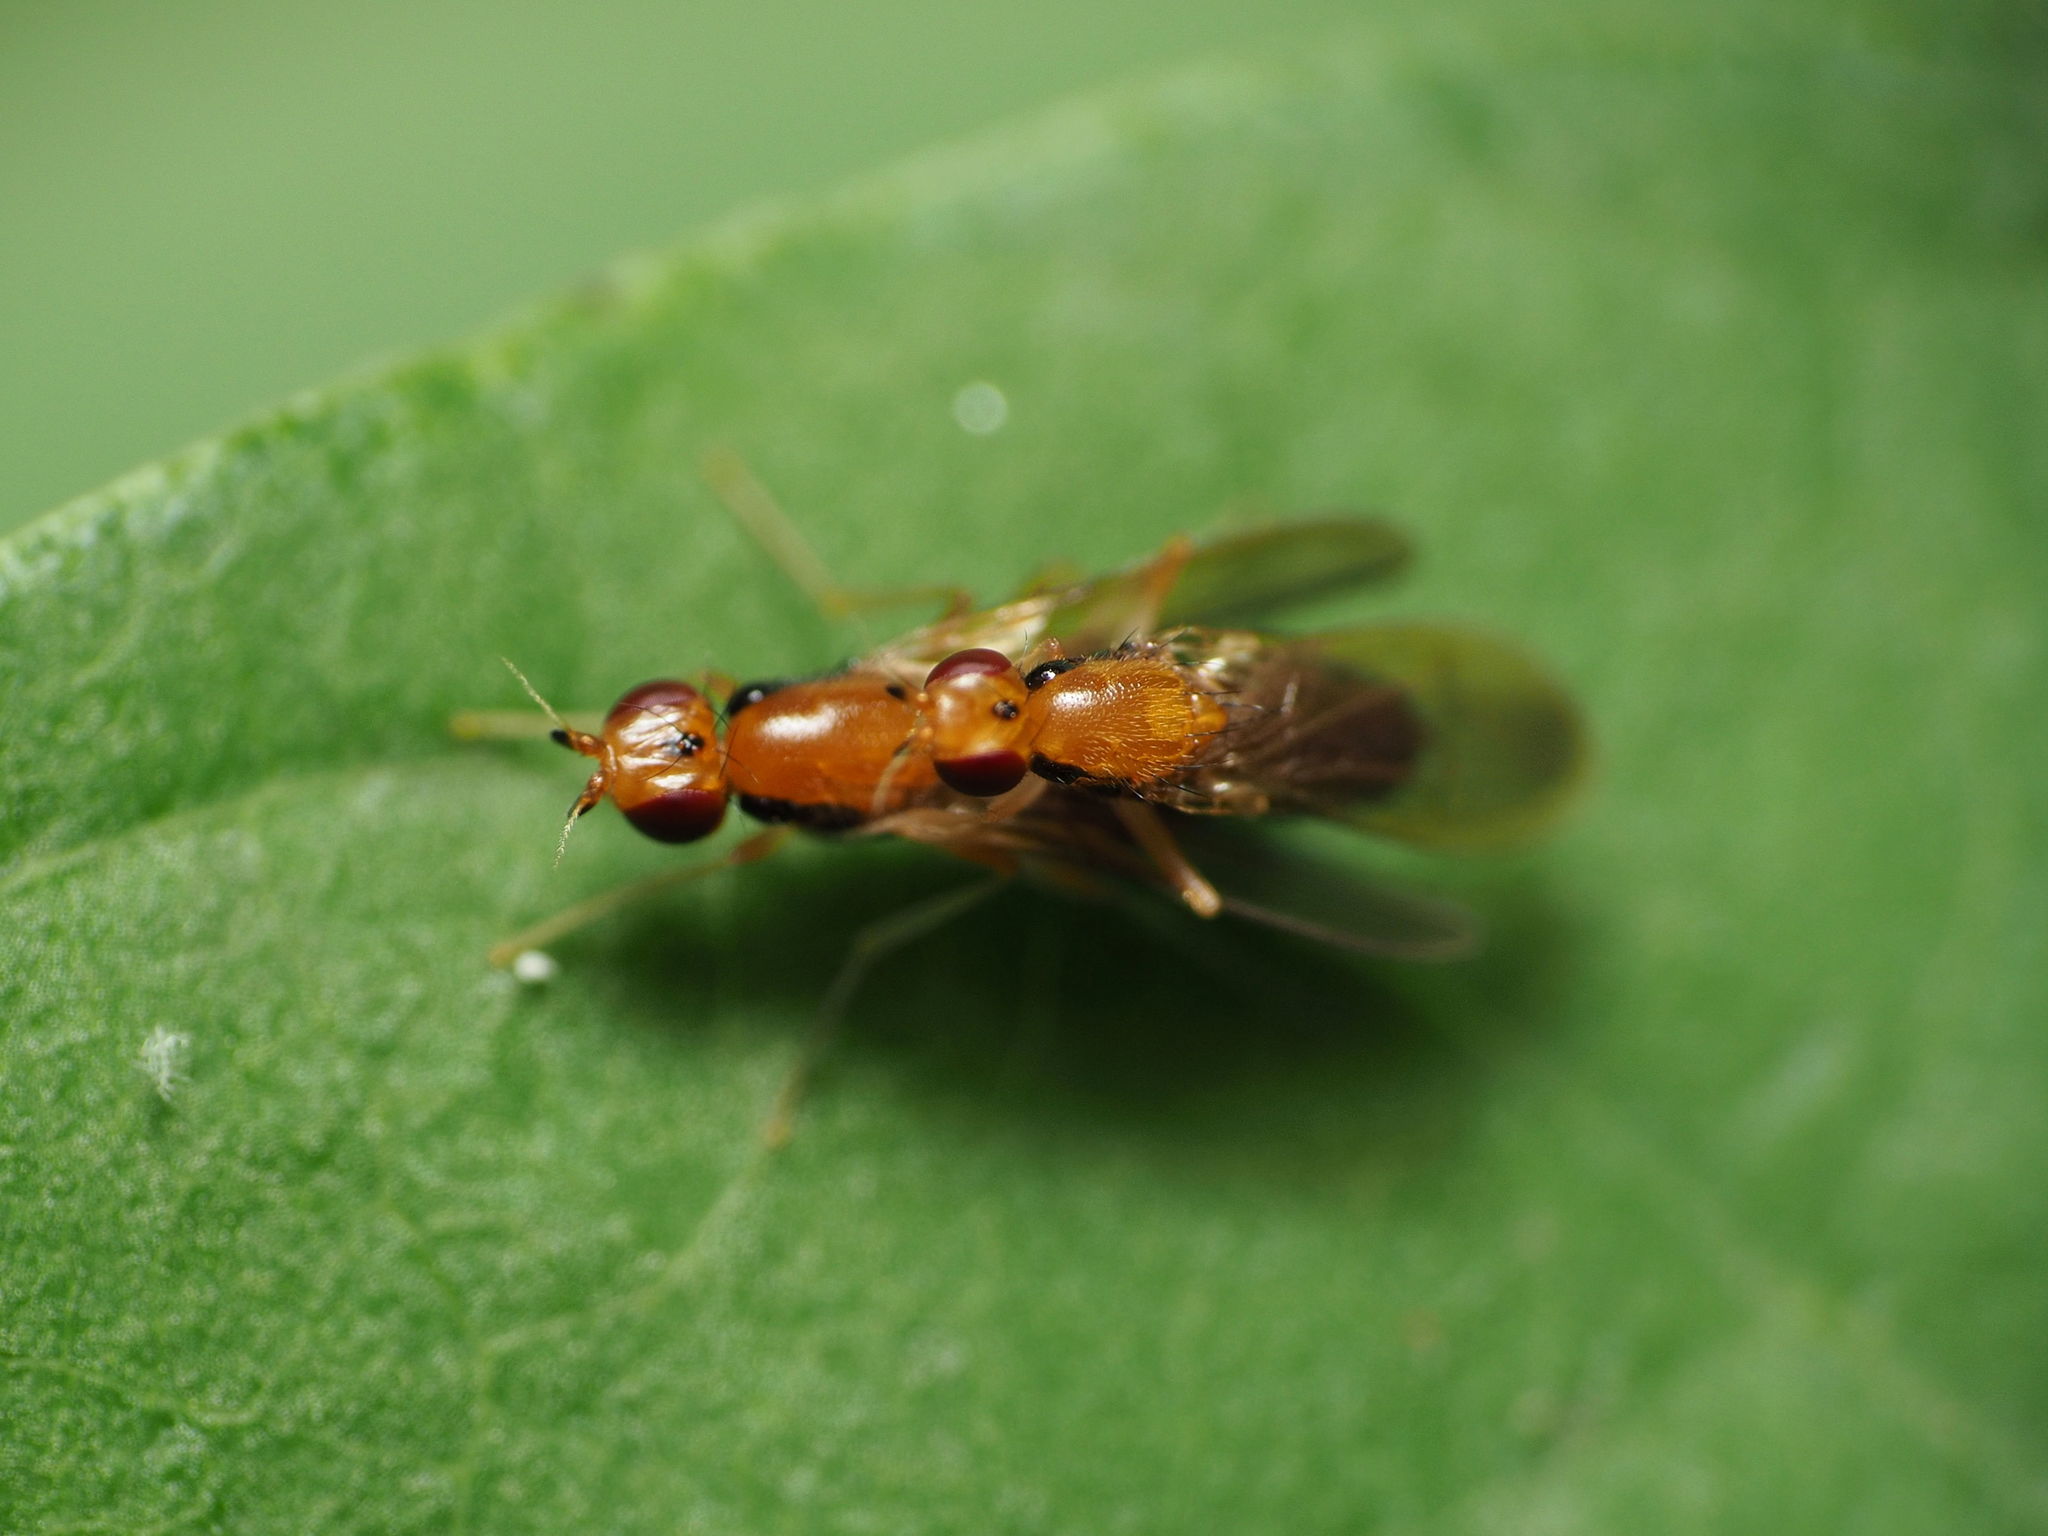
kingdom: Animalia
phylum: Arthropoda
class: Insecta
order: Diptera
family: Psilidae
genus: Psila
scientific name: Psila lateralis
